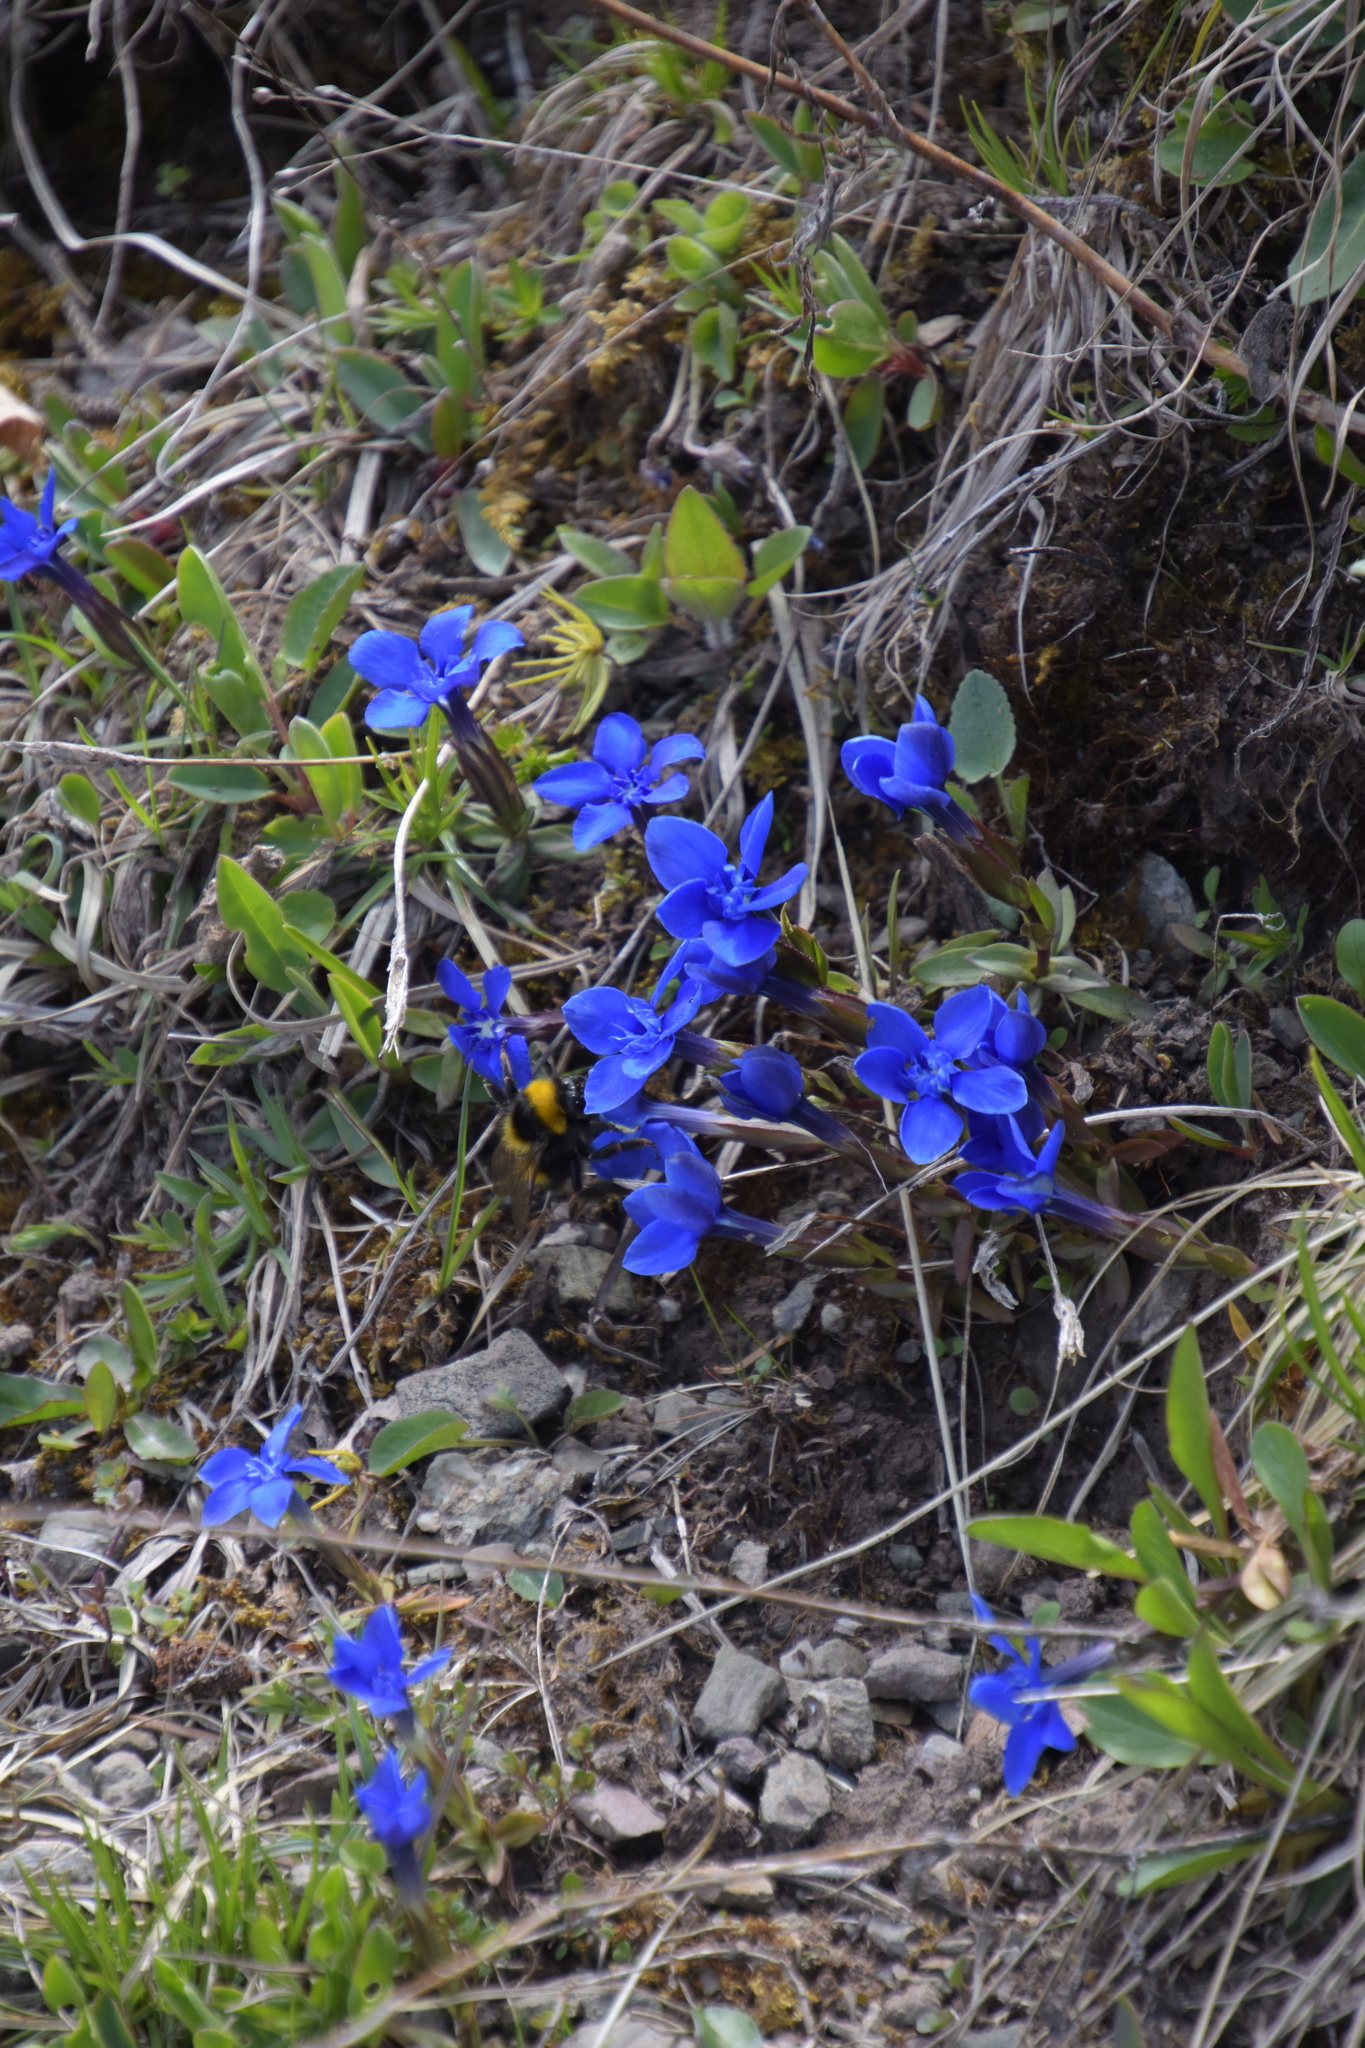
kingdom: Plantae
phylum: Tracheophyta
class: Magnoliopsida
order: Gentianales
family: Gentianaceae
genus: Gentiana
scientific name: Gentiana verna
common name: Spring gentian
